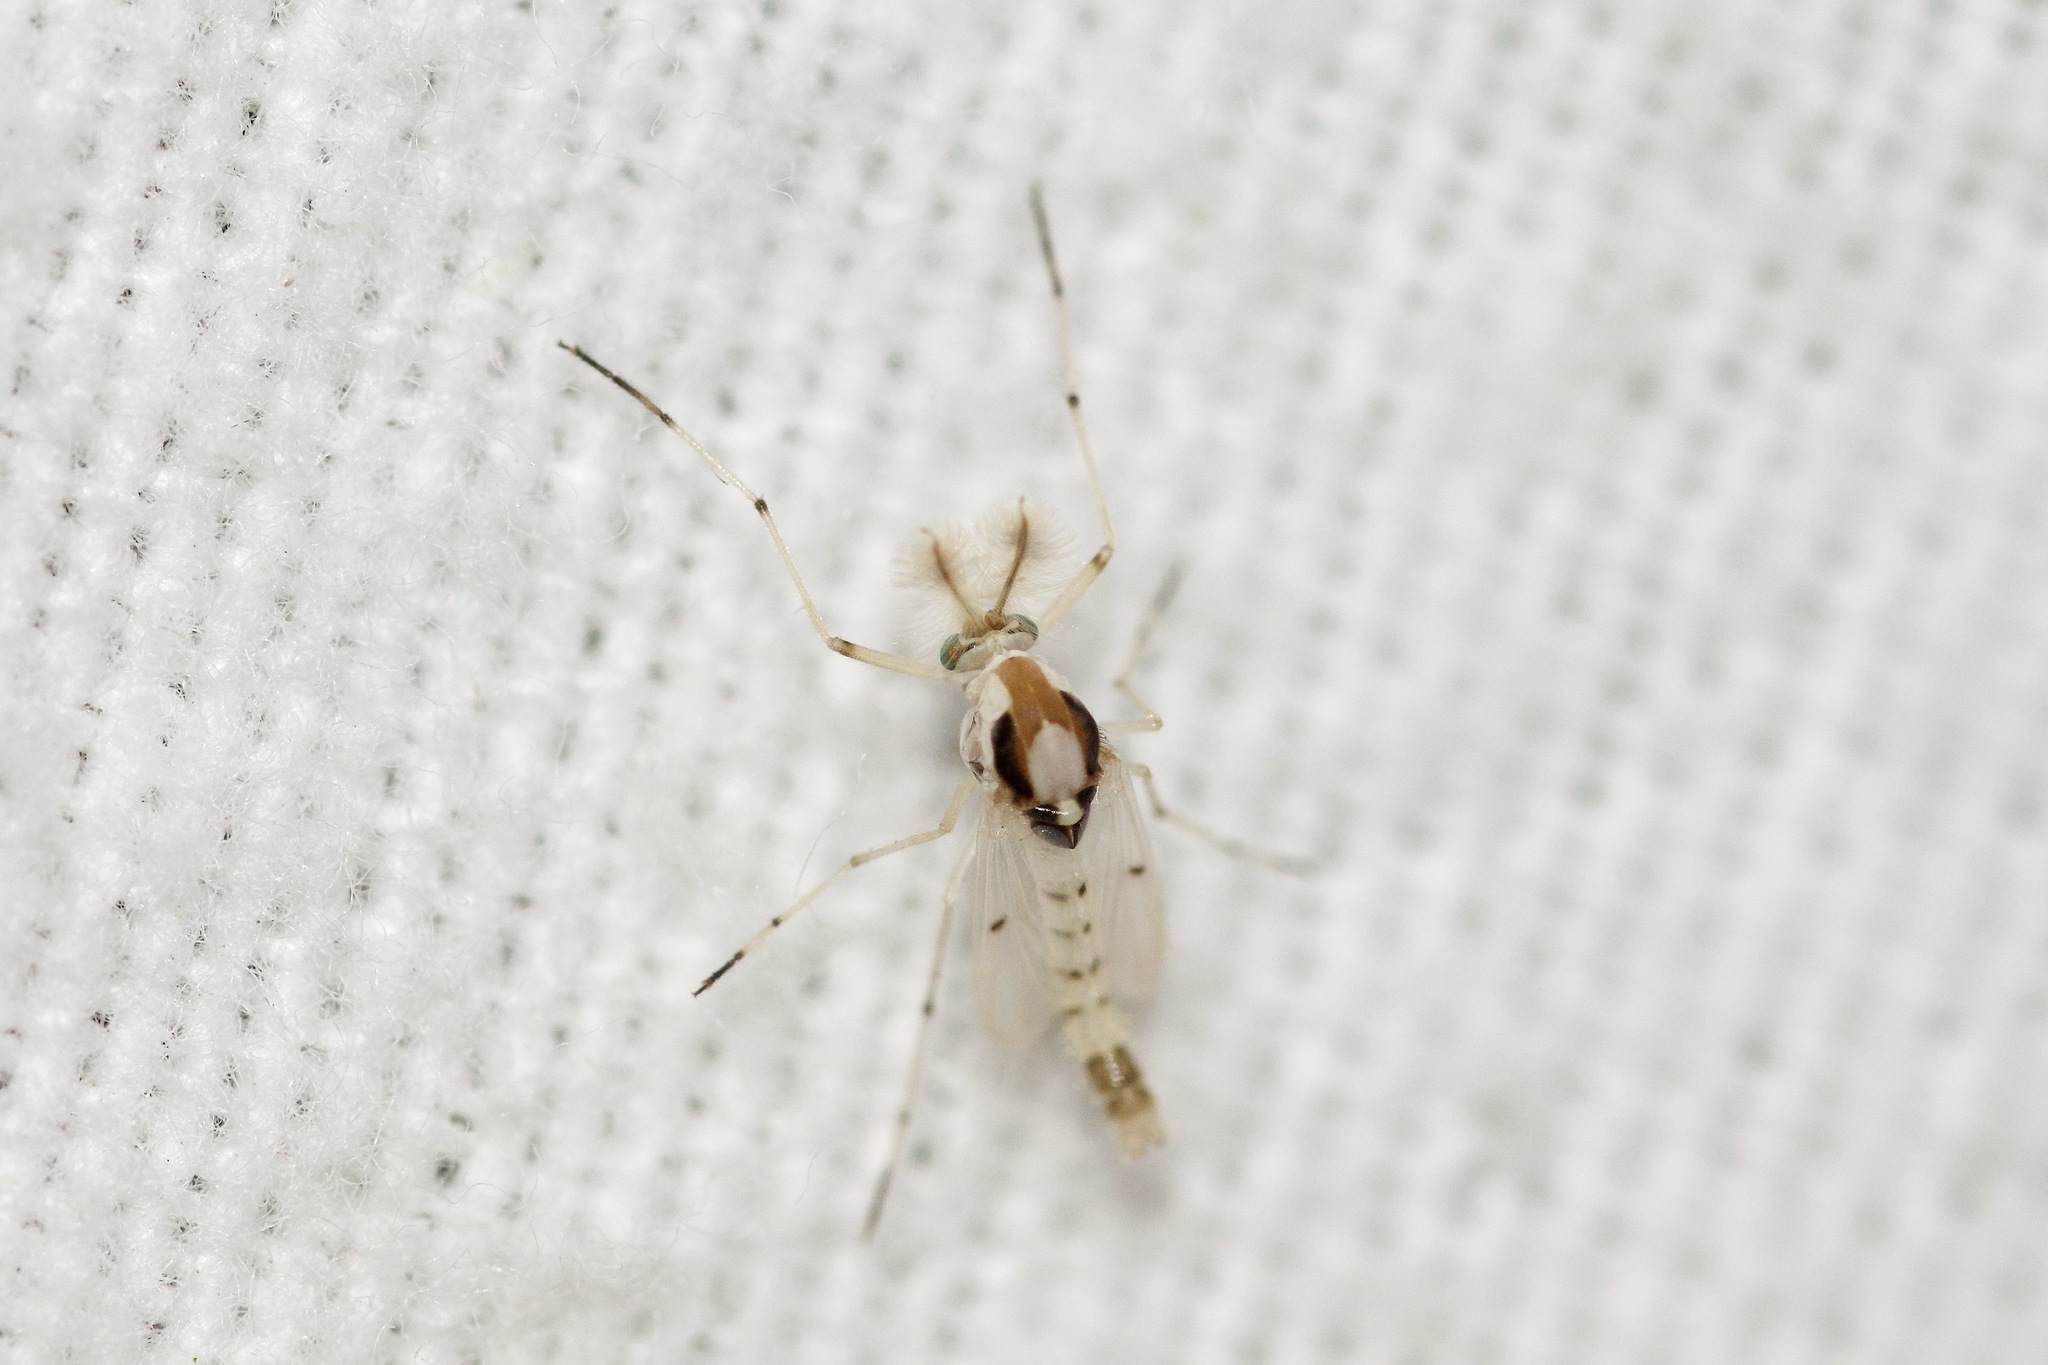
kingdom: Animalia
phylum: Arthropoda
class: Insecta
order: Diptera
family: Chironomidae
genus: Coelotanypus
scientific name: Coelotanypus concinnus
